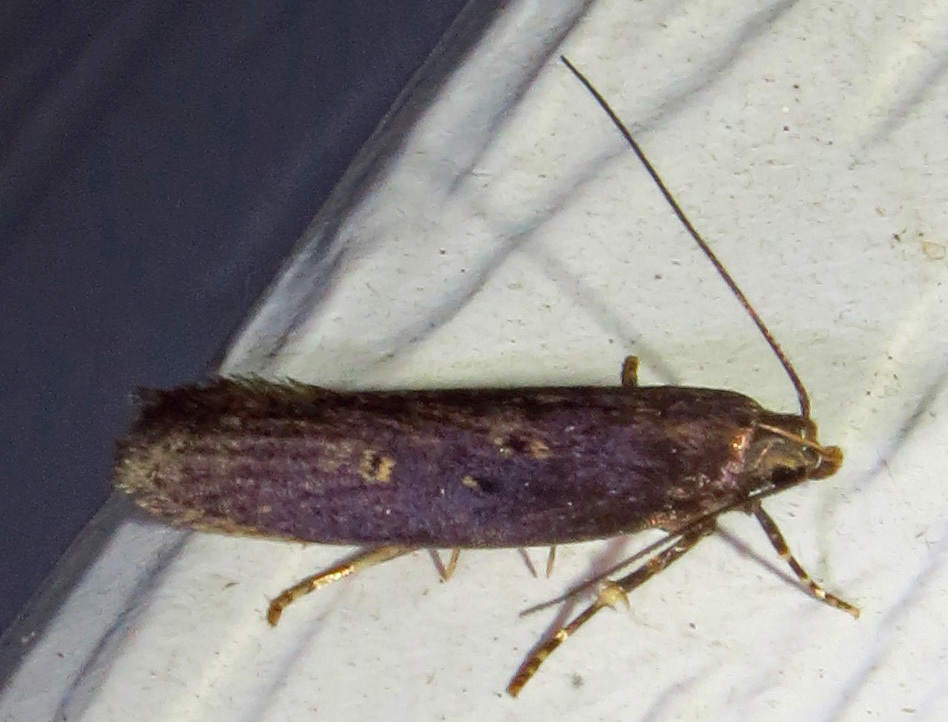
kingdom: Animalia
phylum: Arthropoda
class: Insecta
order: Lepidoptera
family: Gelechiidae
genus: Chionodes
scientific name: Chionodes discoocellella
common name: Eye-ringed chionodes moth
